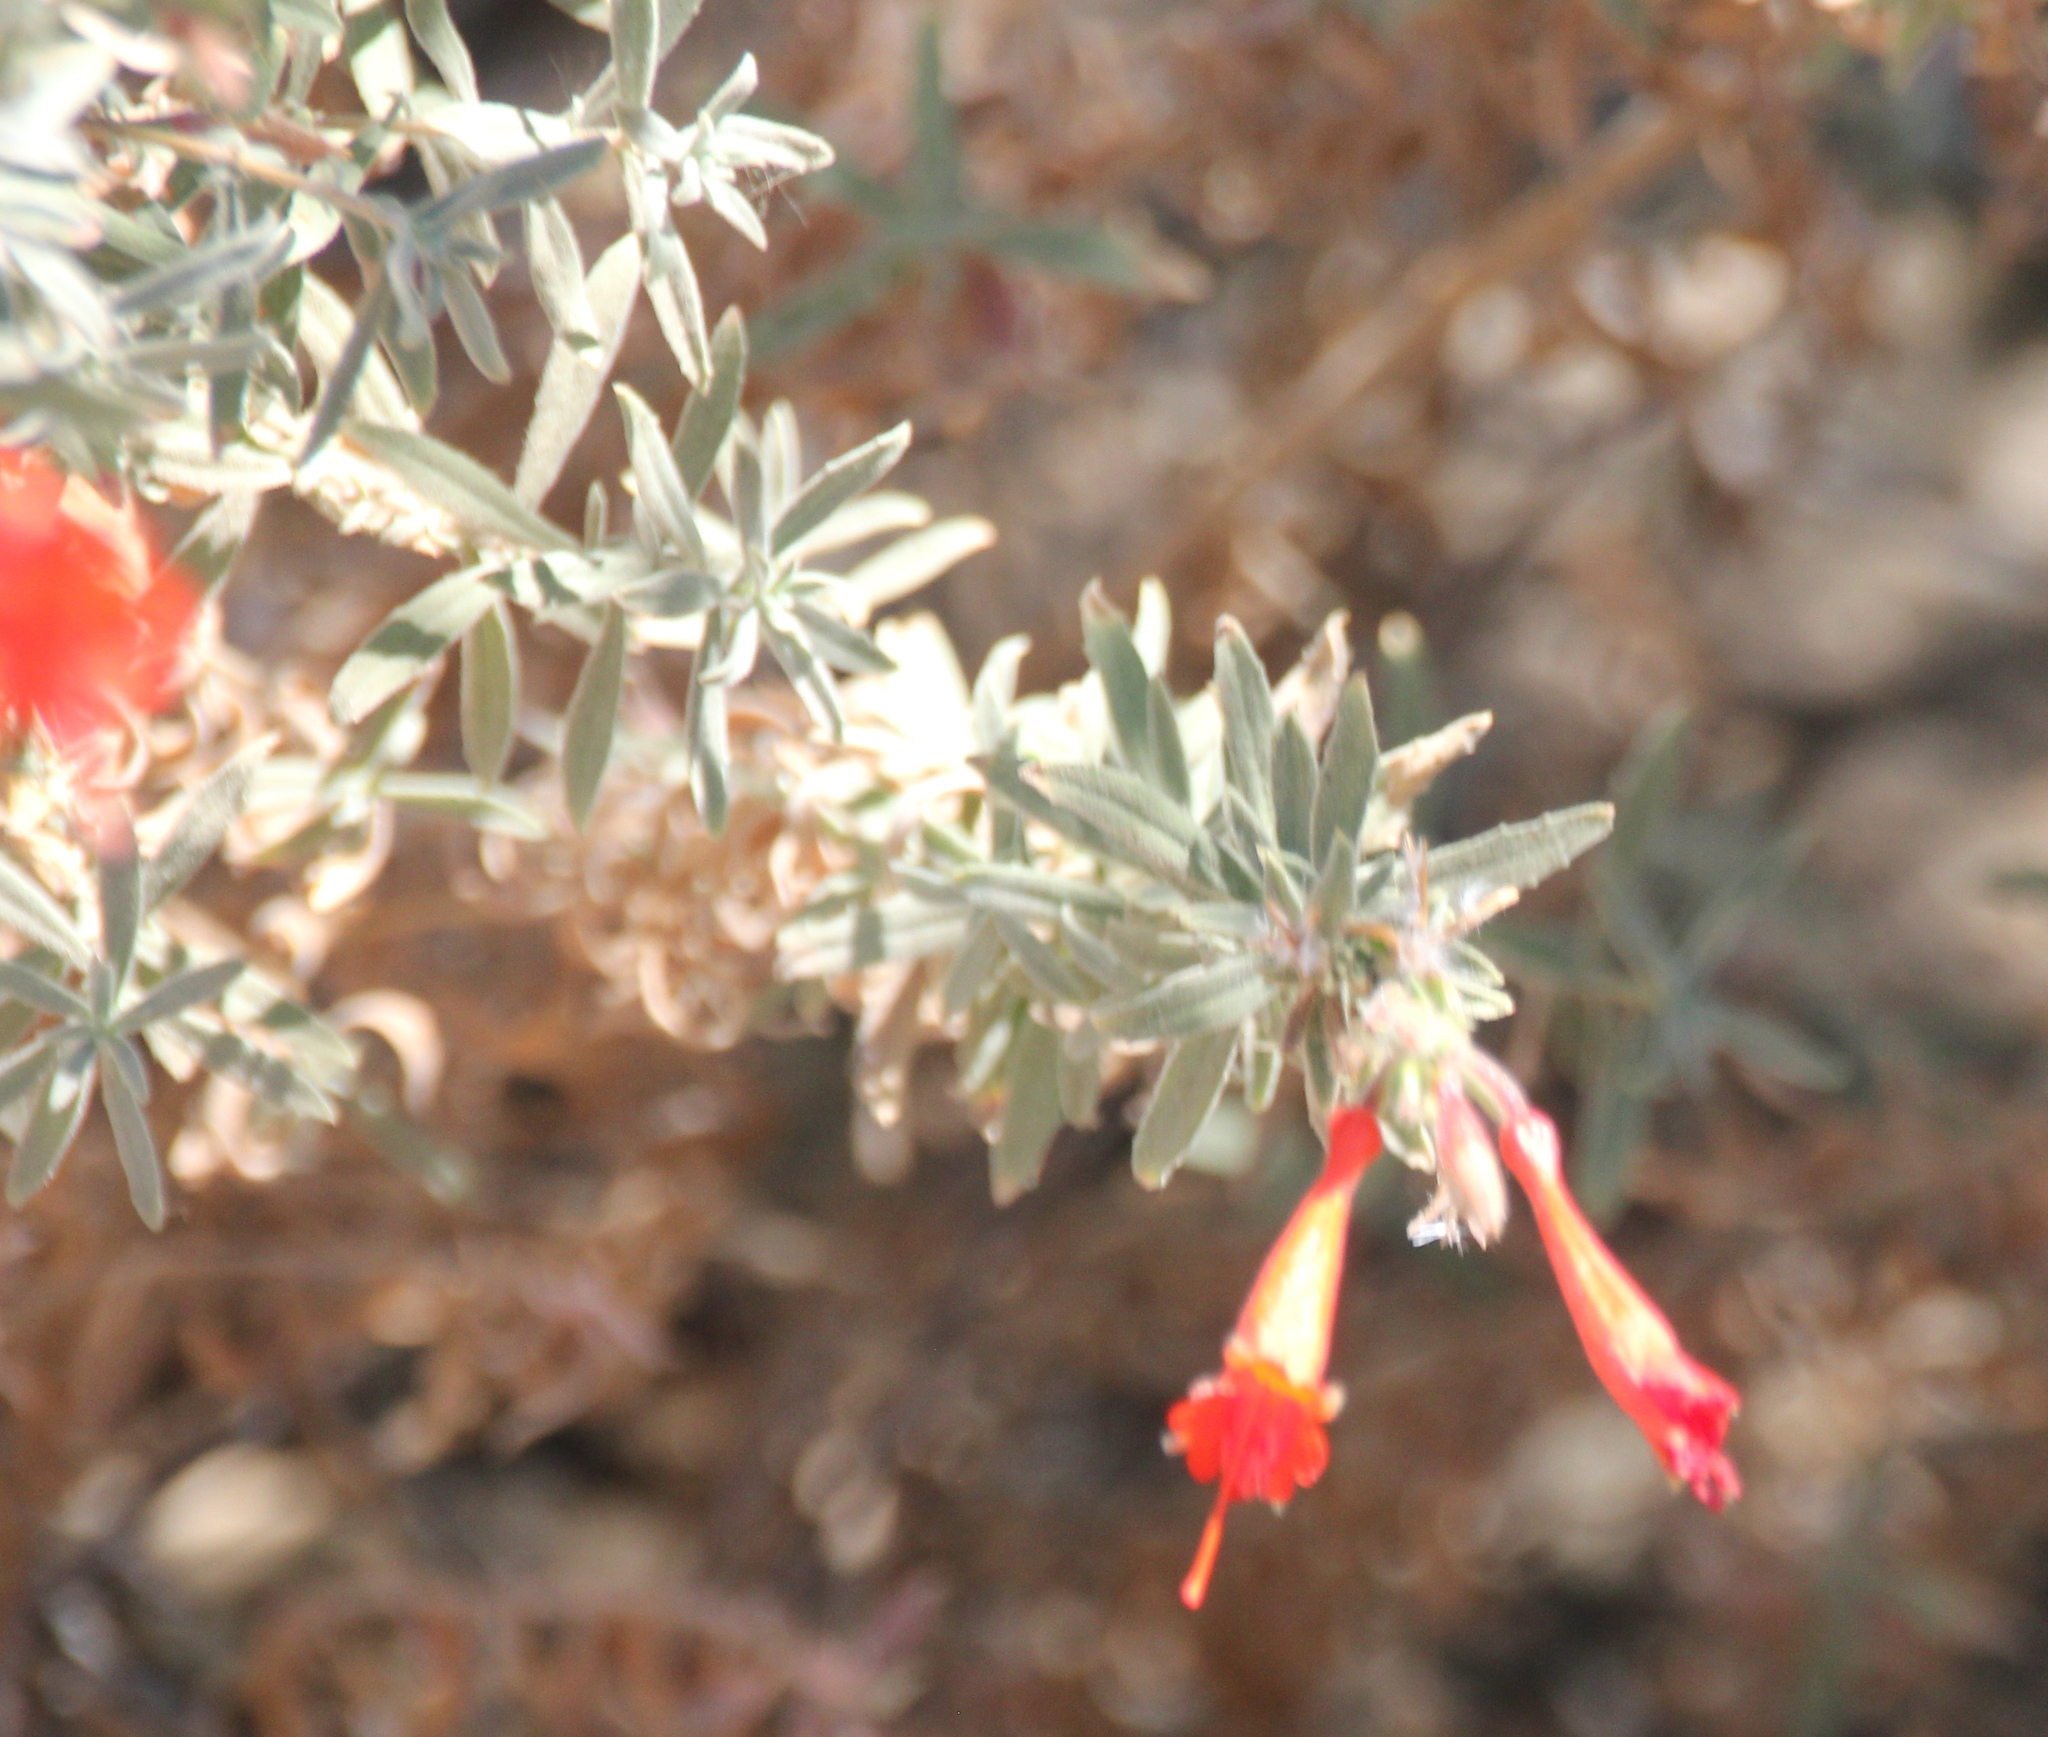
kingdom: Plantae
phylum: Tracheophyta
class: Magnoliopsida
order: Myrtales
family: Onagraceae
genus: Epilobium
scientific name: Epilobium canum
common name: California-fuchsia
